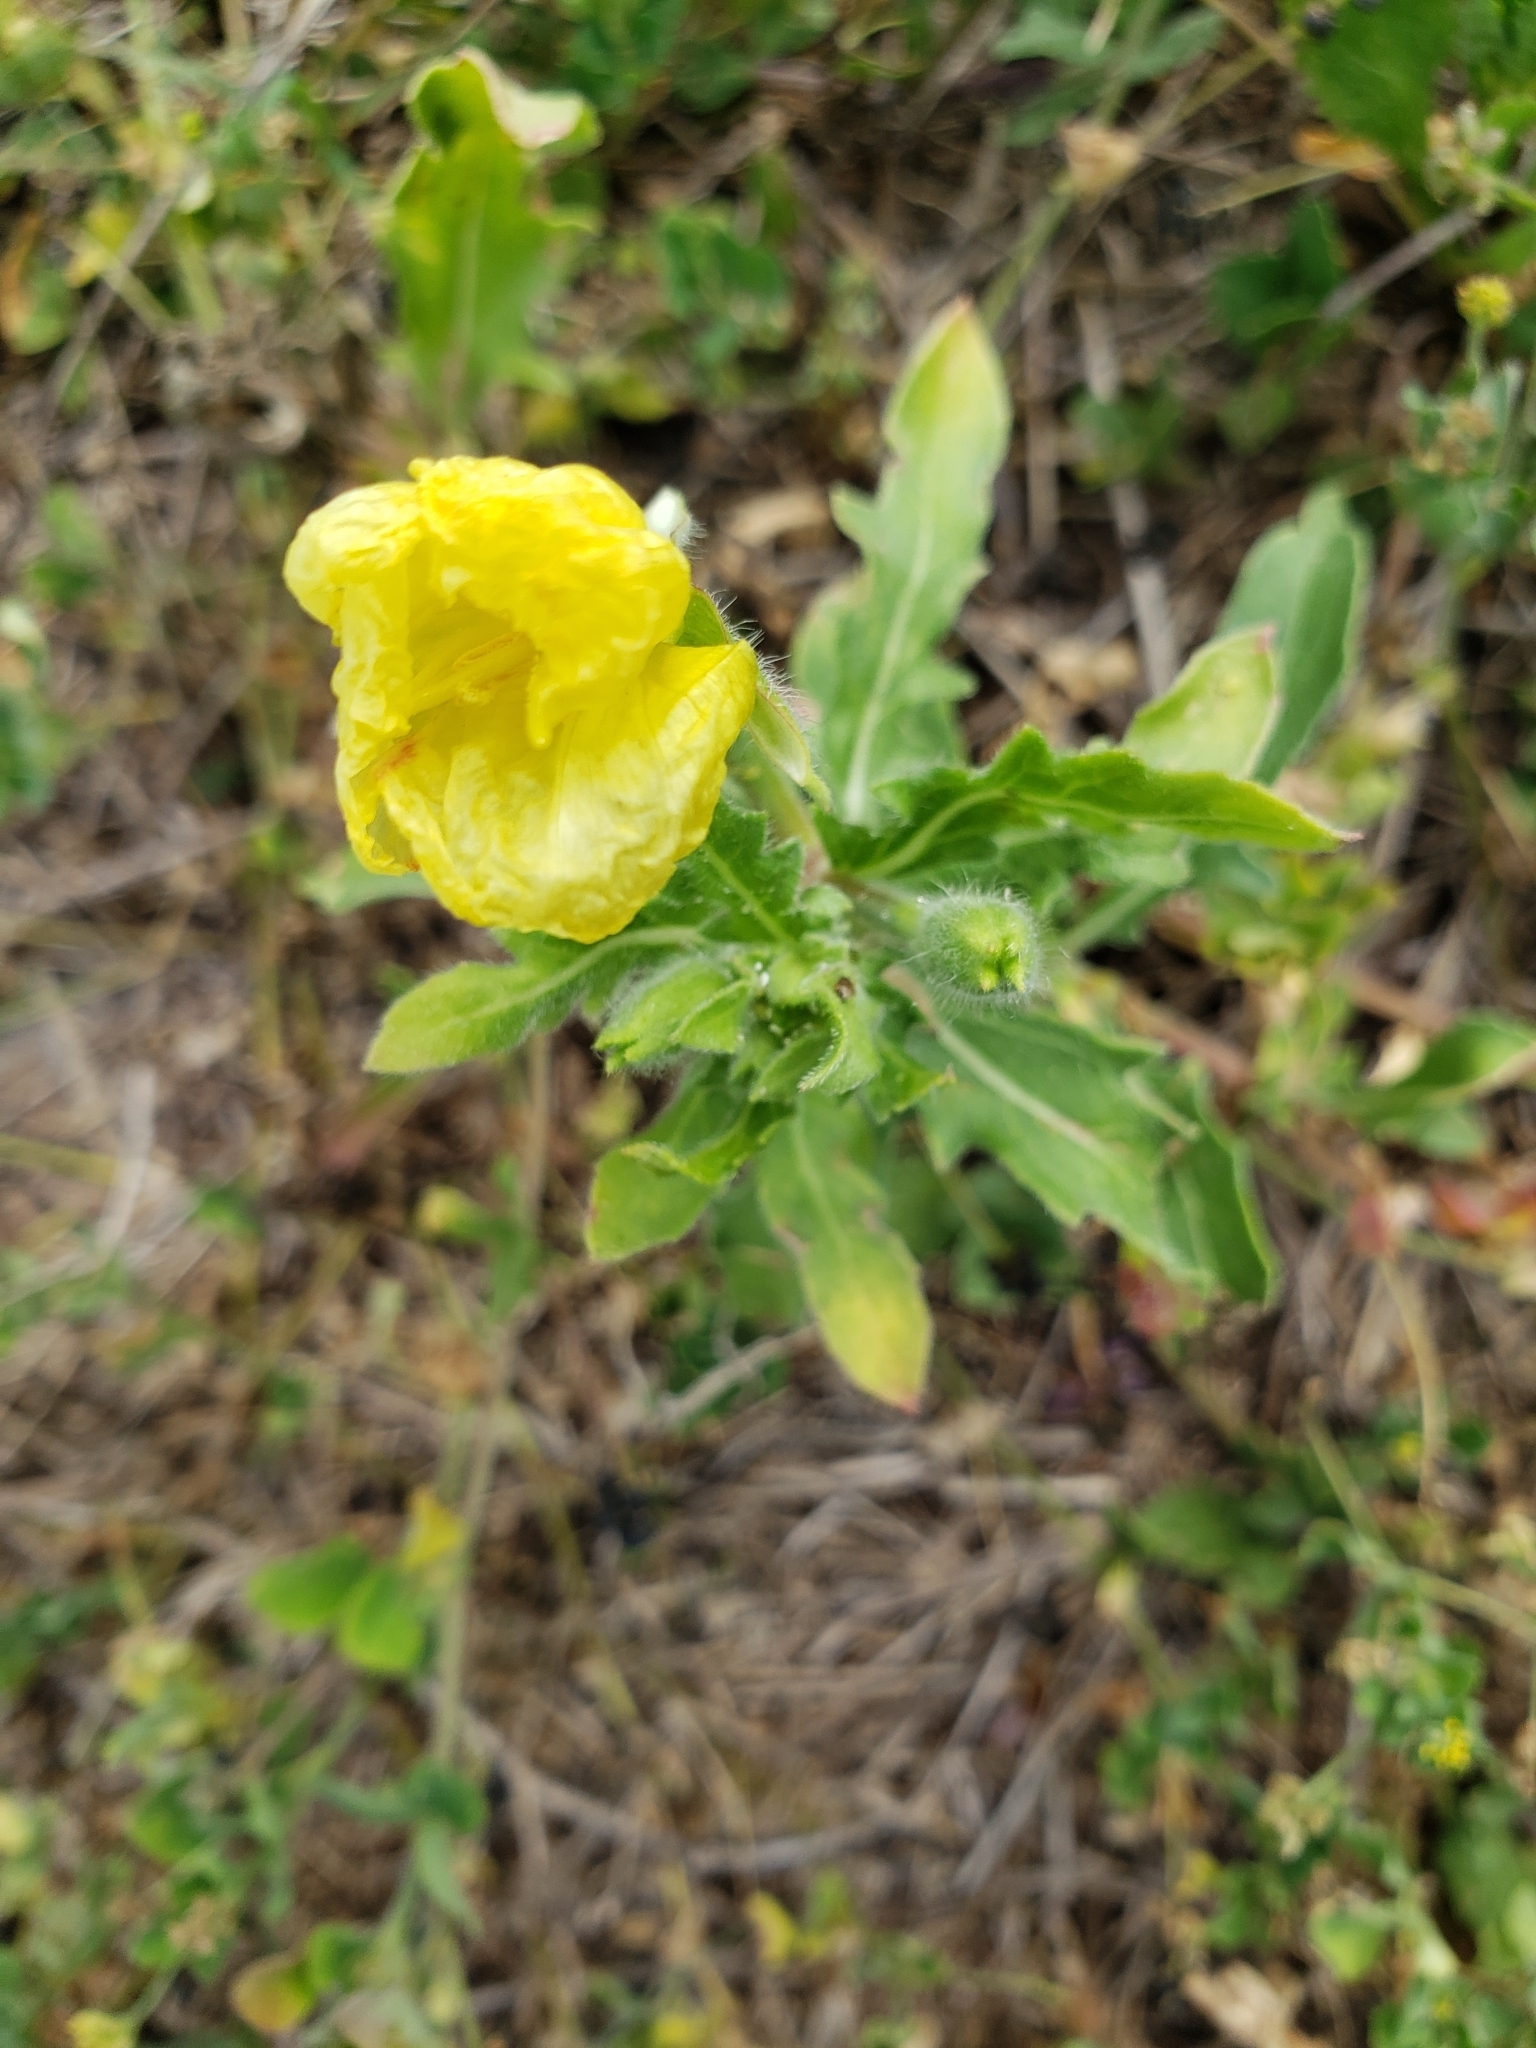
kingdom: Plantae
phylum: Tracheophyta
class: Magnoliopsida
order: Myrtales
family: Onagraceae
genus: Oenothera
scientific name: Oenothera laciniata
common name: Cut-leaved evening-primrose
